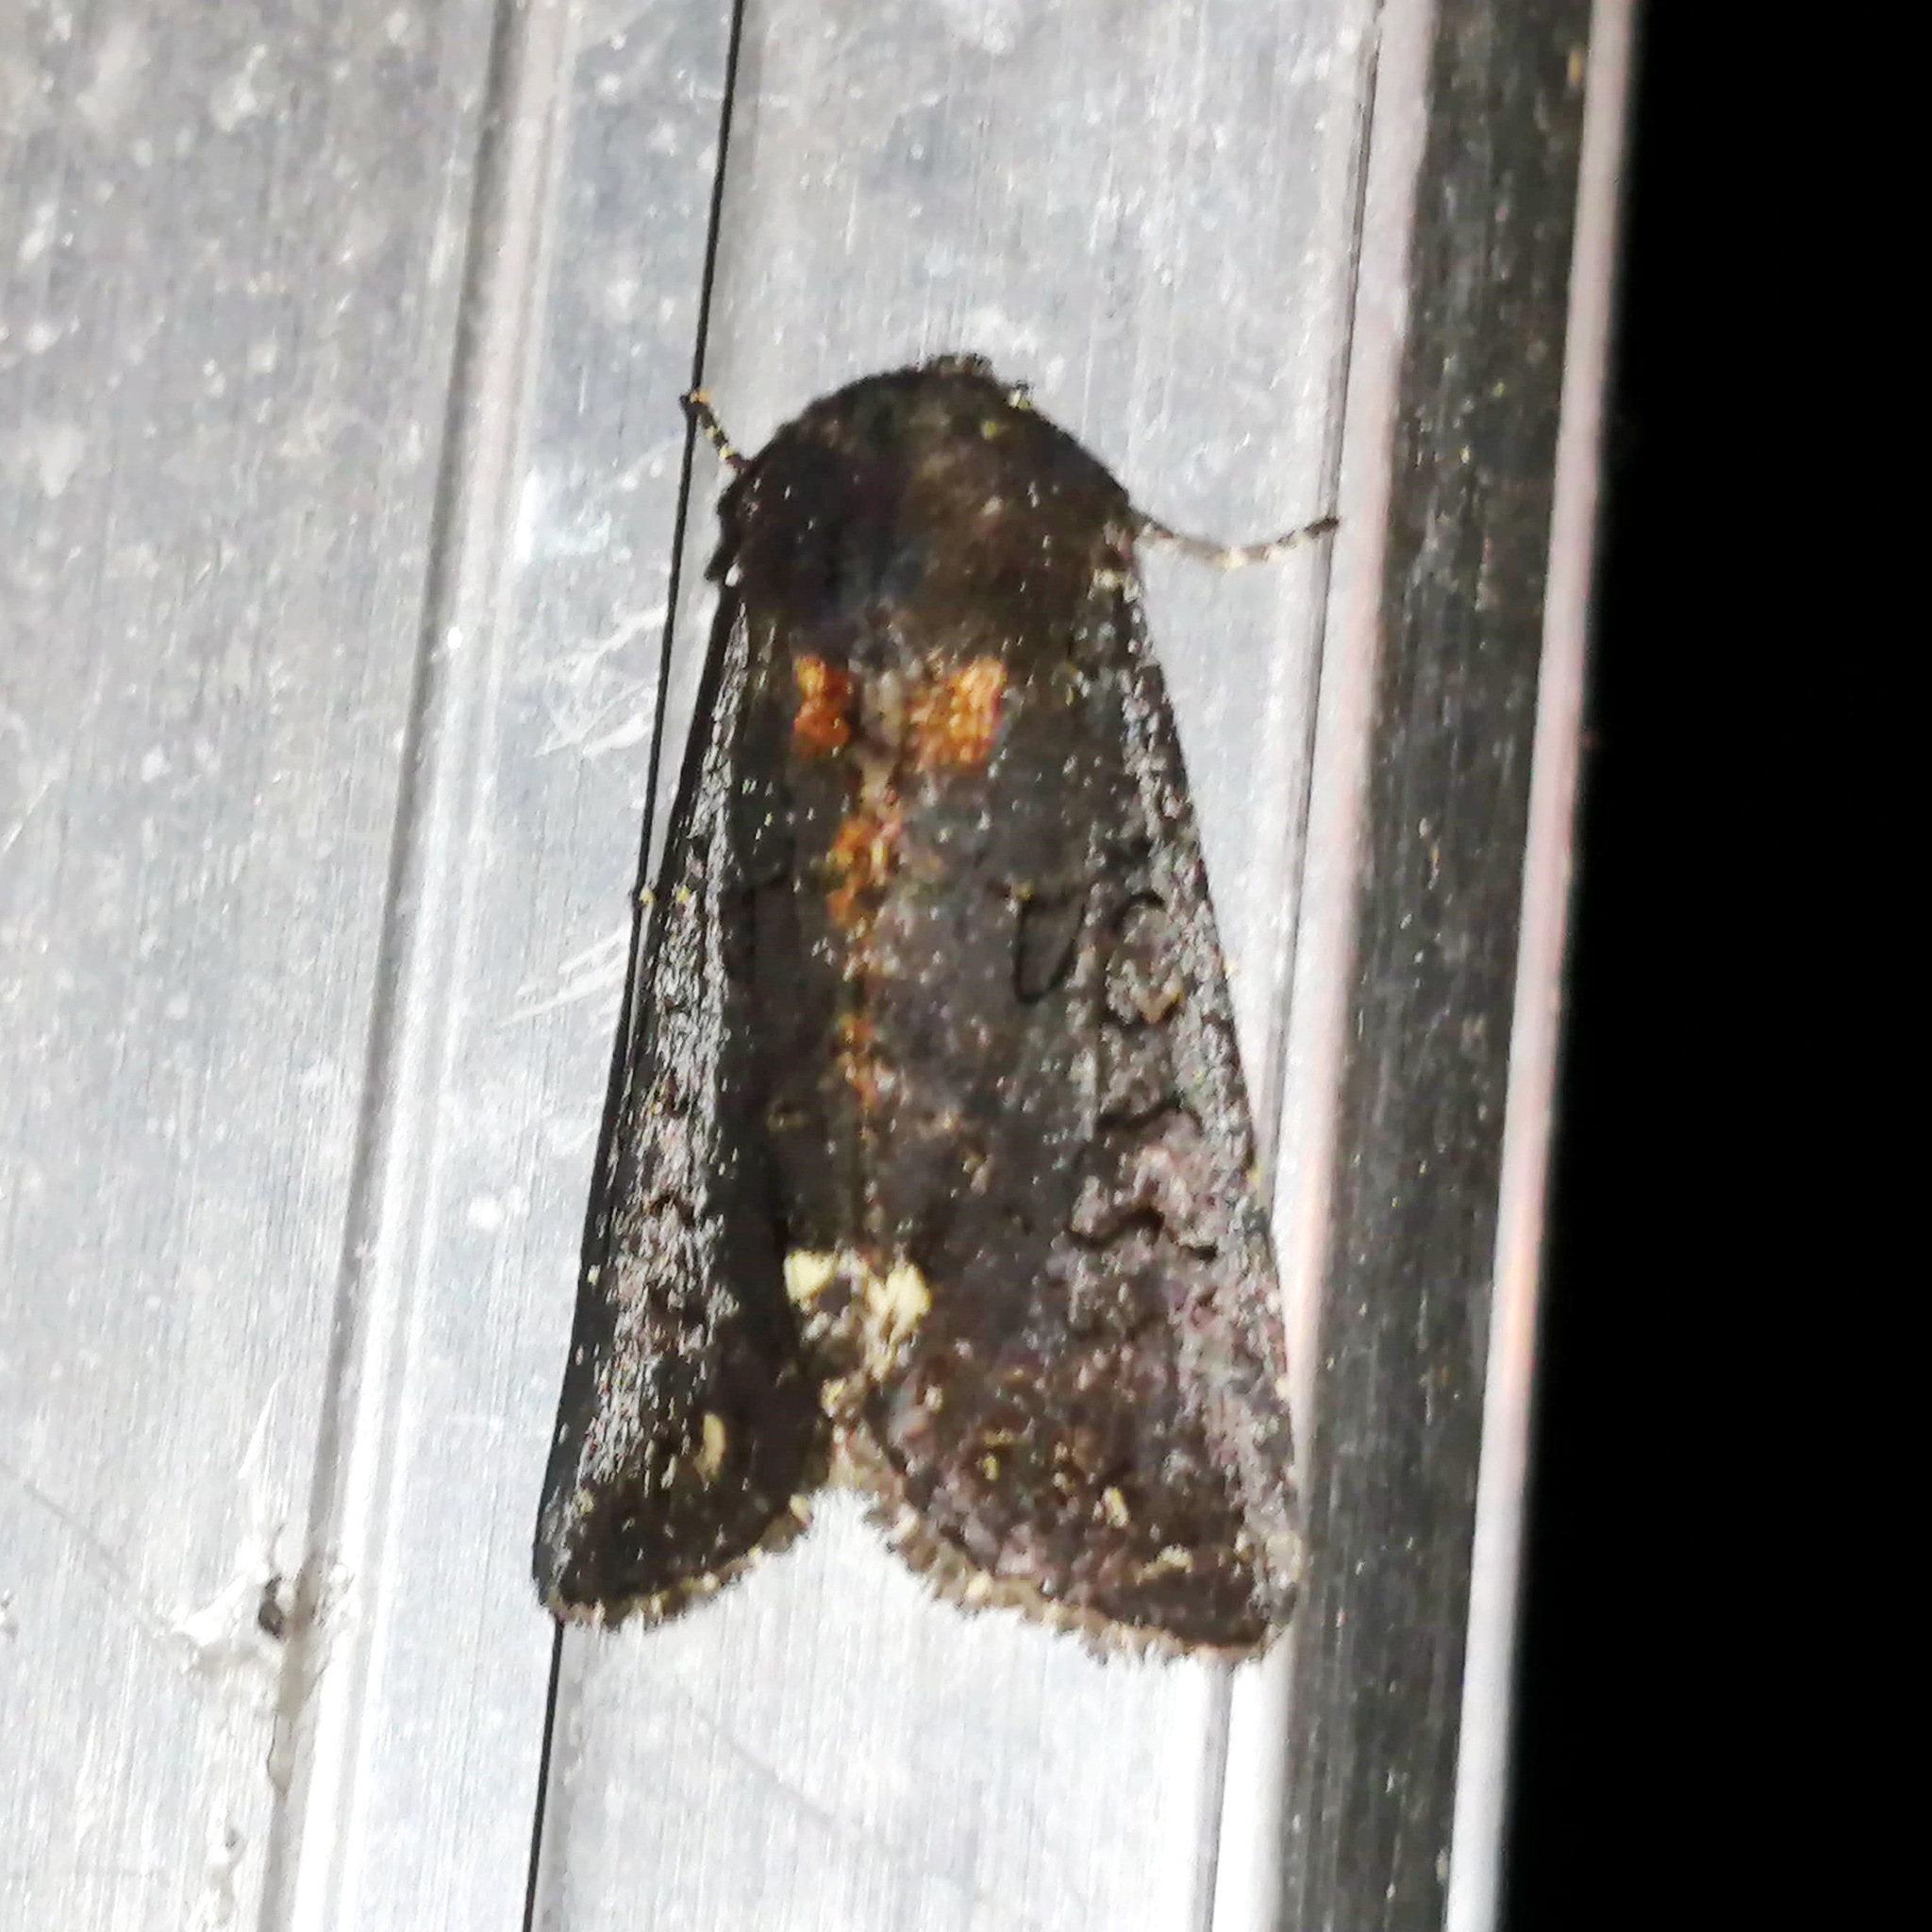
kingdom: Animalia
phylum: Arthropoda
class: Insecta
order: Lepidoptera
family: Noctuidae
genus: Melanchra
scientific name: Melanchra assimilis
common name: Black arches
